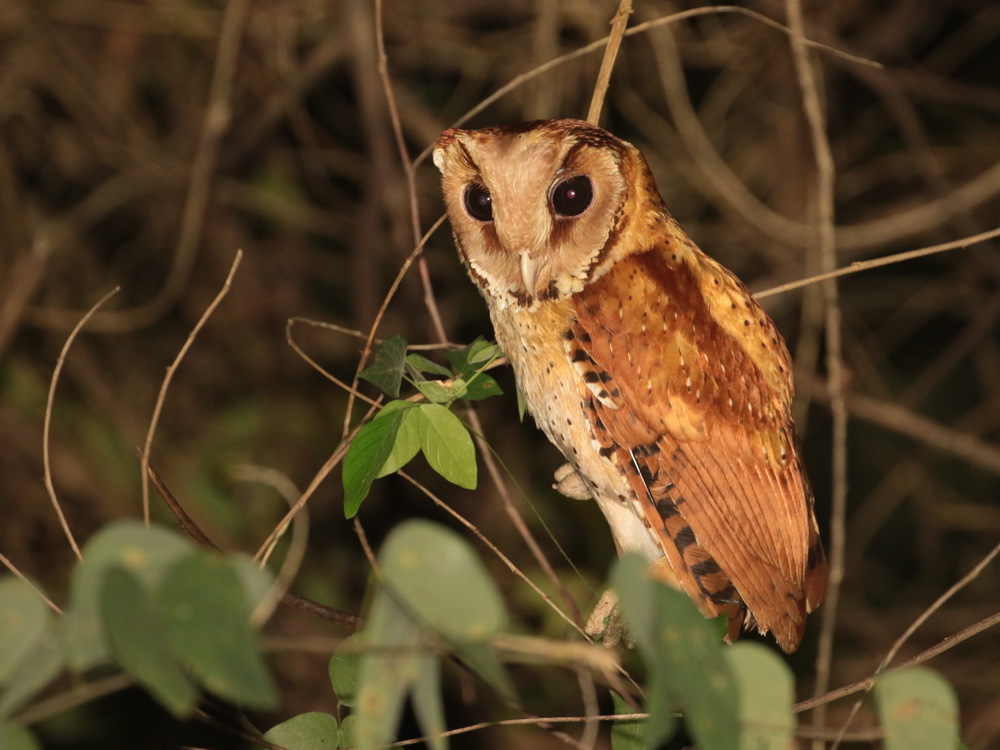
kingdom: Animalia
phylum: Chordata
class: Aves
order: Strigiformes
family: Tytonidae
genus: Phodilus
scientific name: Phodilus badius
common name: Oriental bay-owl
